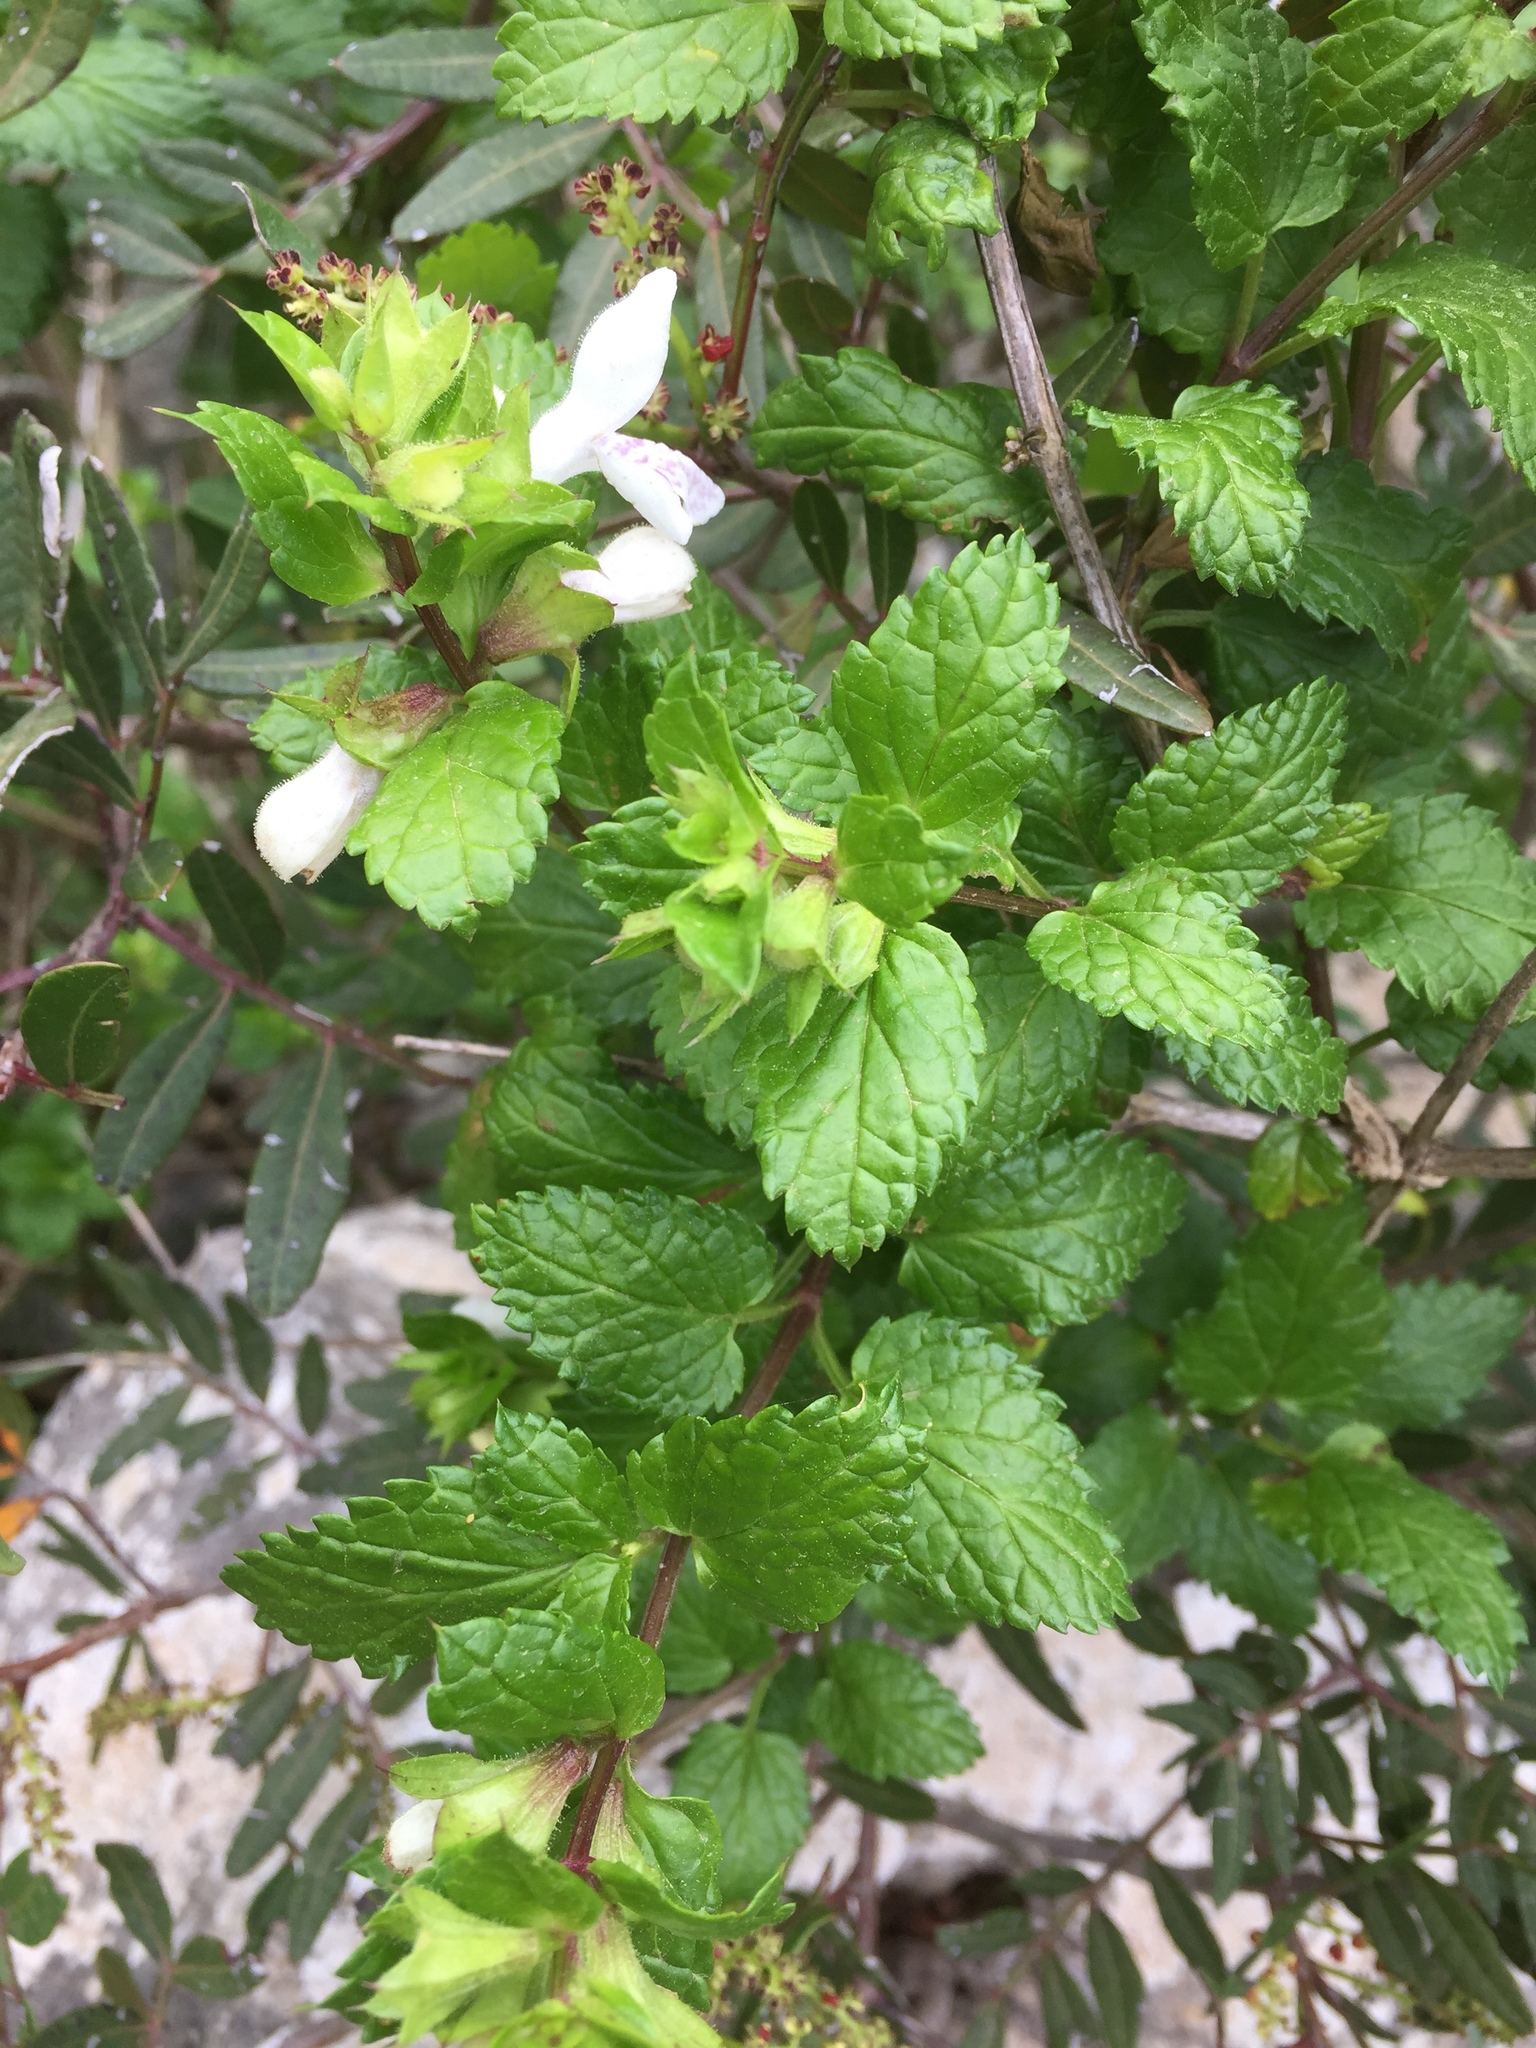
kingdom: Plantae
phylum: Tracheophyta
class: Magnoliopsida
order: Lamiales
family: Lamiaceae
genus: Prasium
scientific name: Prasium majus
